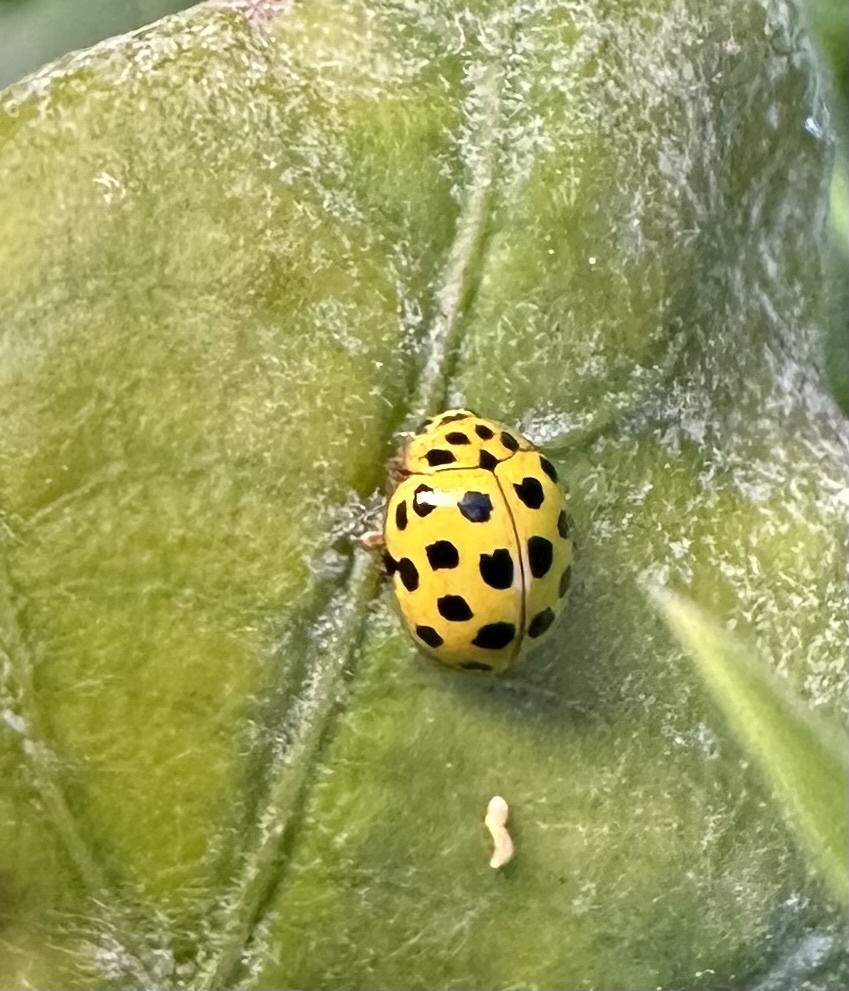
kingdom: Animalia
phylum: Arthropoda
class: Insecta
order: Coleoptera
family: Coccinellidae
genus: Psyllobora
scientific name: Psyllobora vigintiduopunctata
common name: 22-spot ladybird
